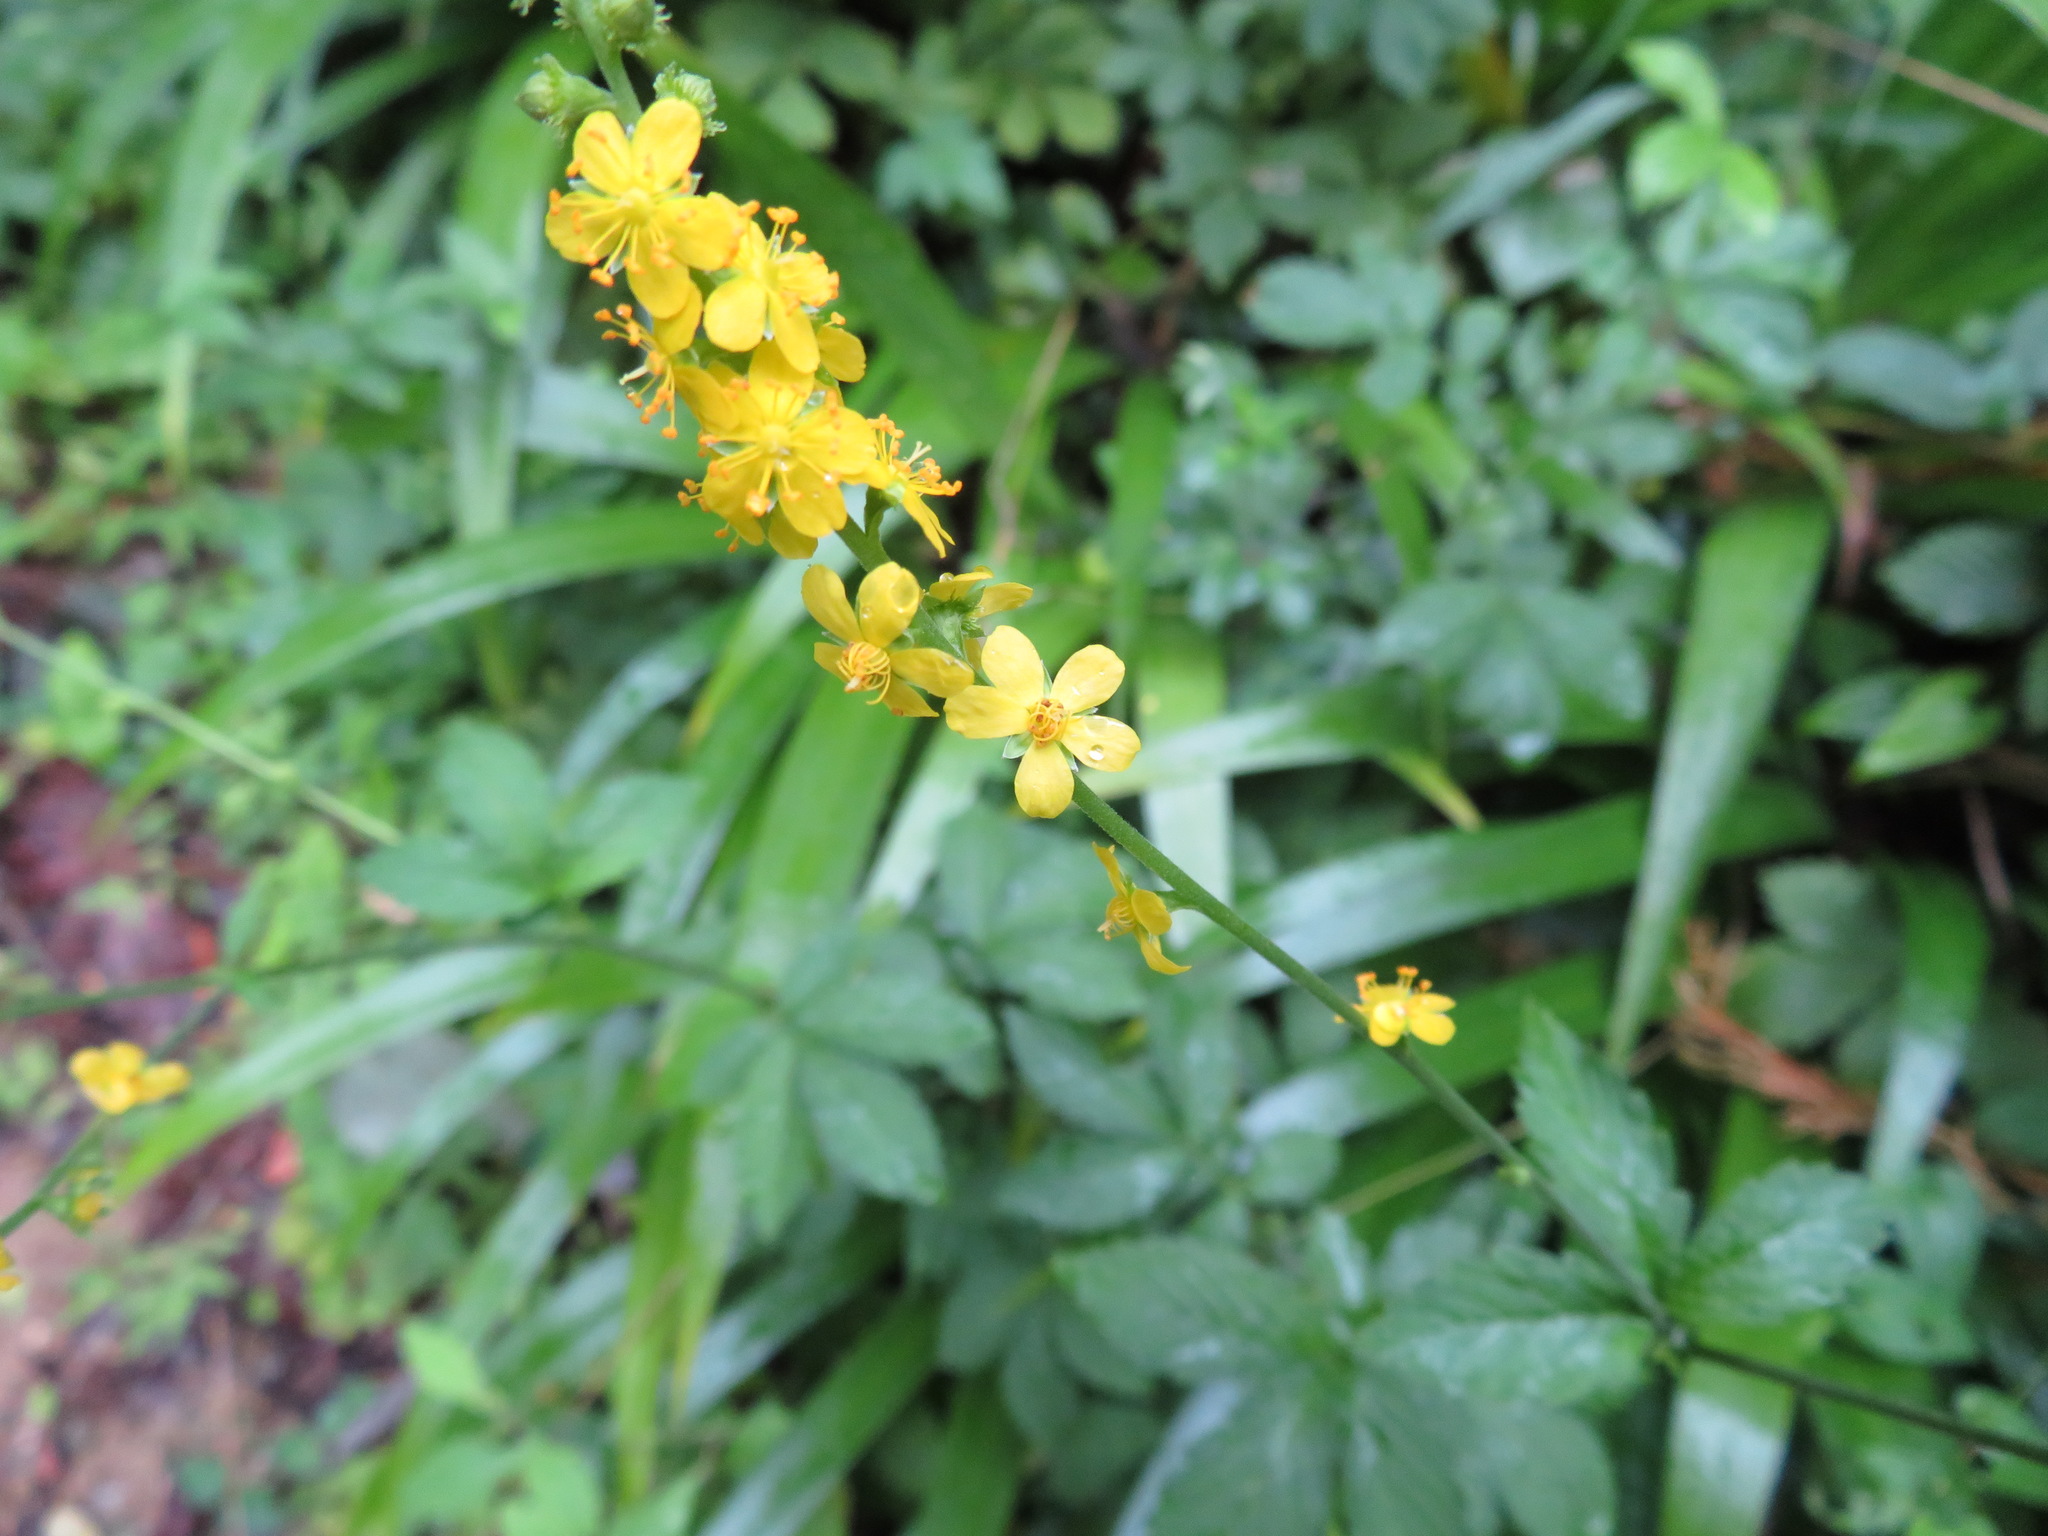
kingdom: Plantae
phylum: Tracheophyta
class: Magnoliopsida
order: Rosales
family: Rosaceae
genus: Agrimonia
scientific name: Agrimonia pilosa
